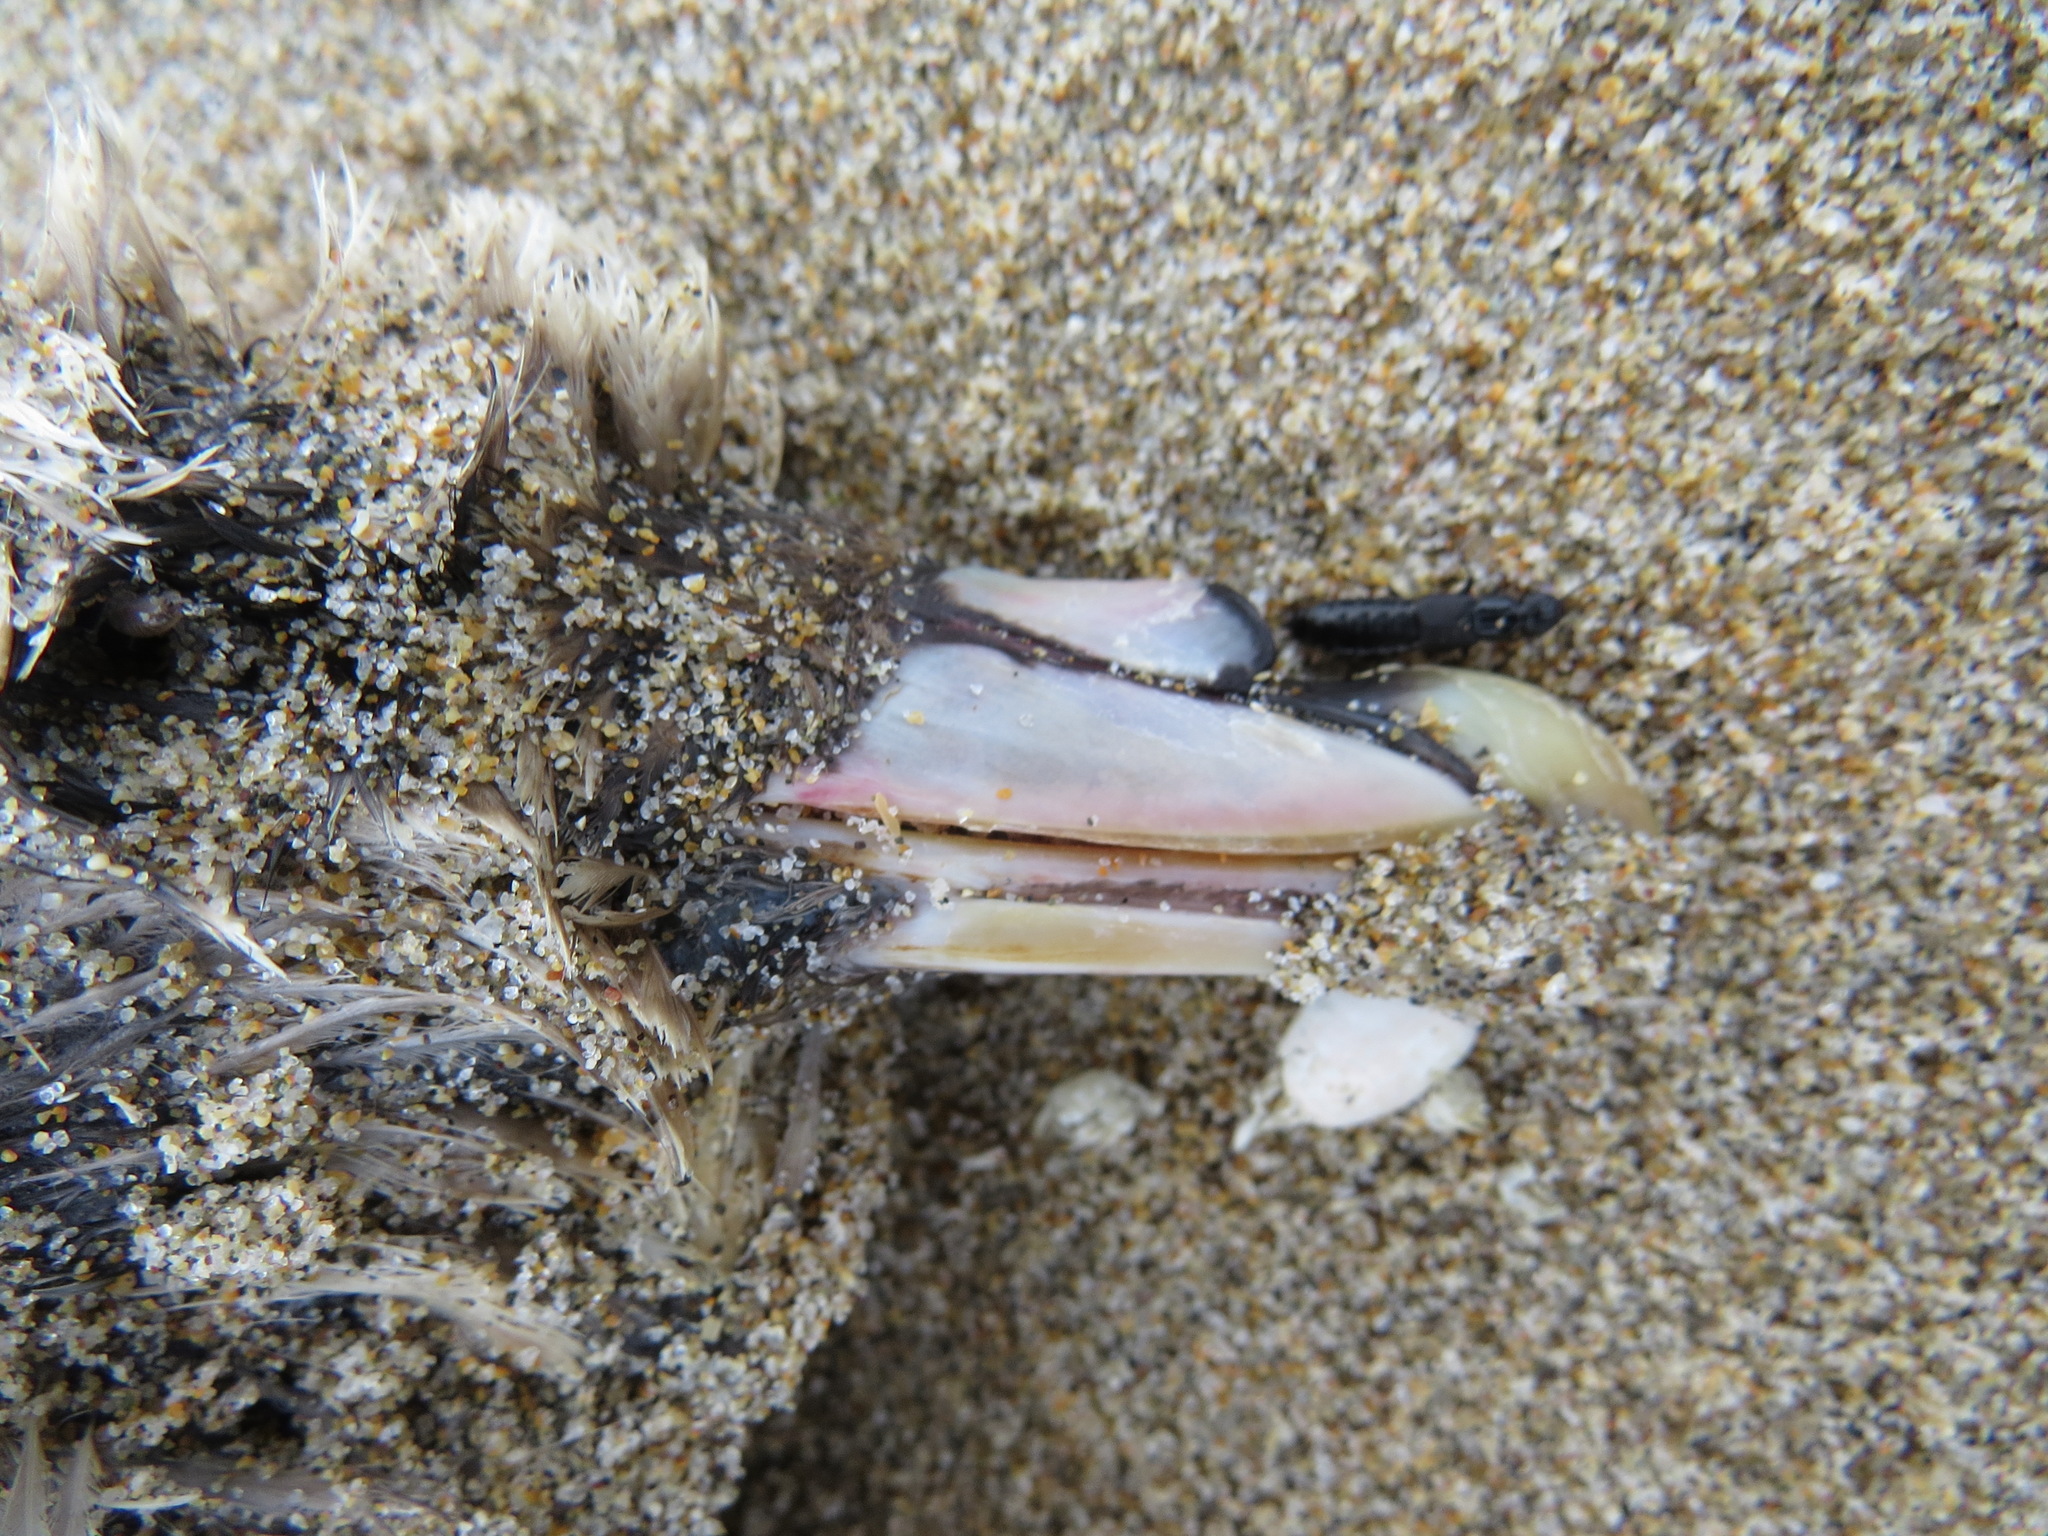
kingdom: Animalia
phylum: Chordata
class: Aves
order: Procellariiformes
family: Procellariidae
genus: Fulmarus
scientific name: Fulmarus glacialis
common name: Northern fulmar
